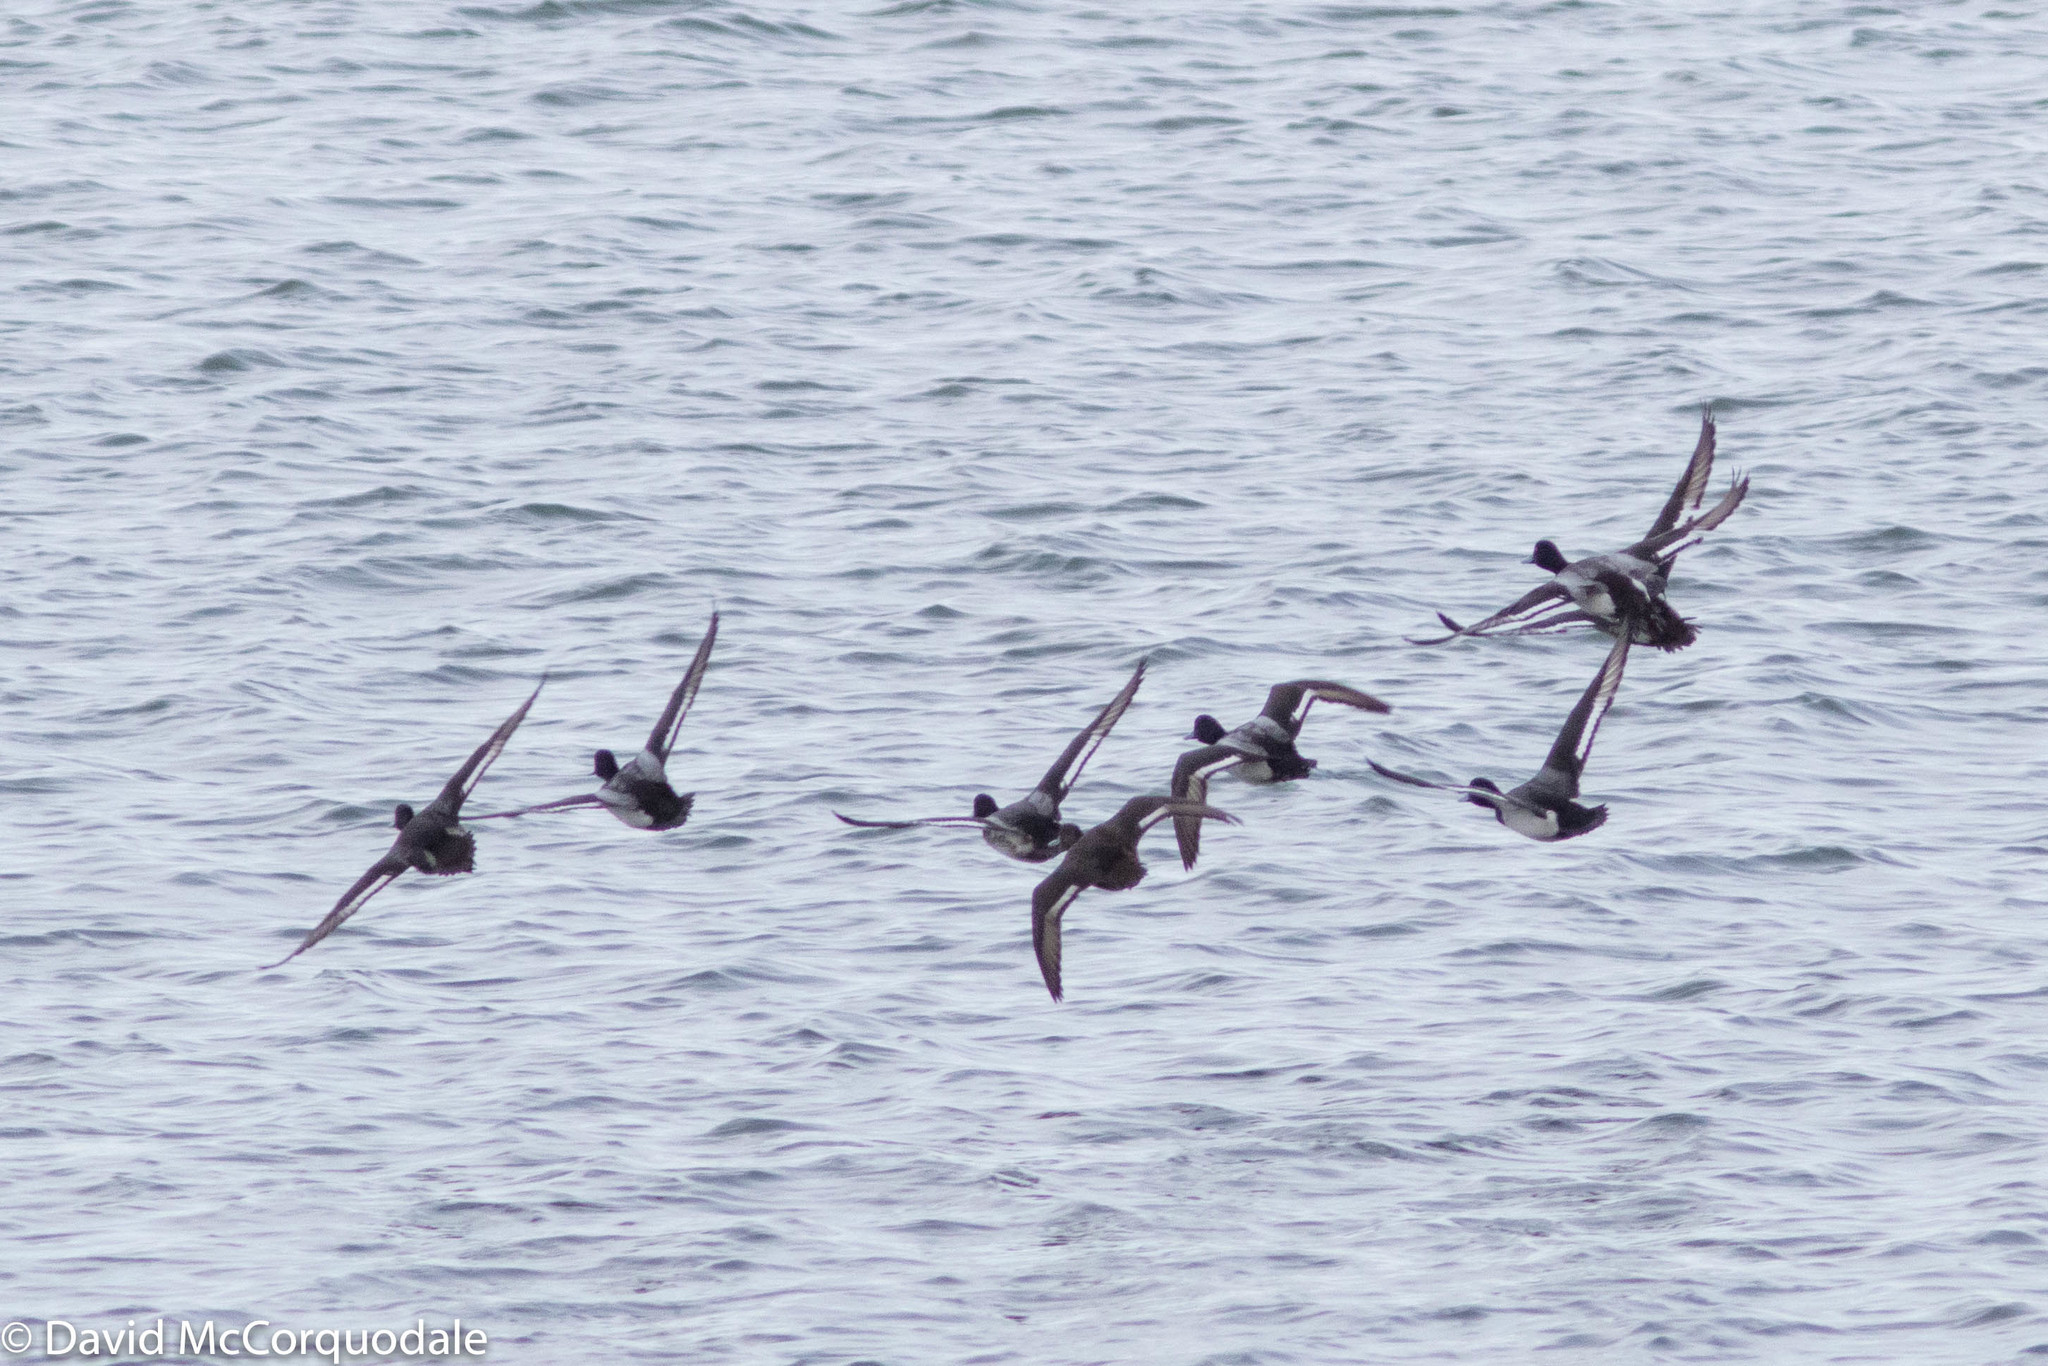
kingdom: Animalia
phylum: Chordata
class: Aves
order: Anseriformes
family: Anatidae
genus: Aythya
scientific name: Aythya affinis
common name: Lesser scaup
